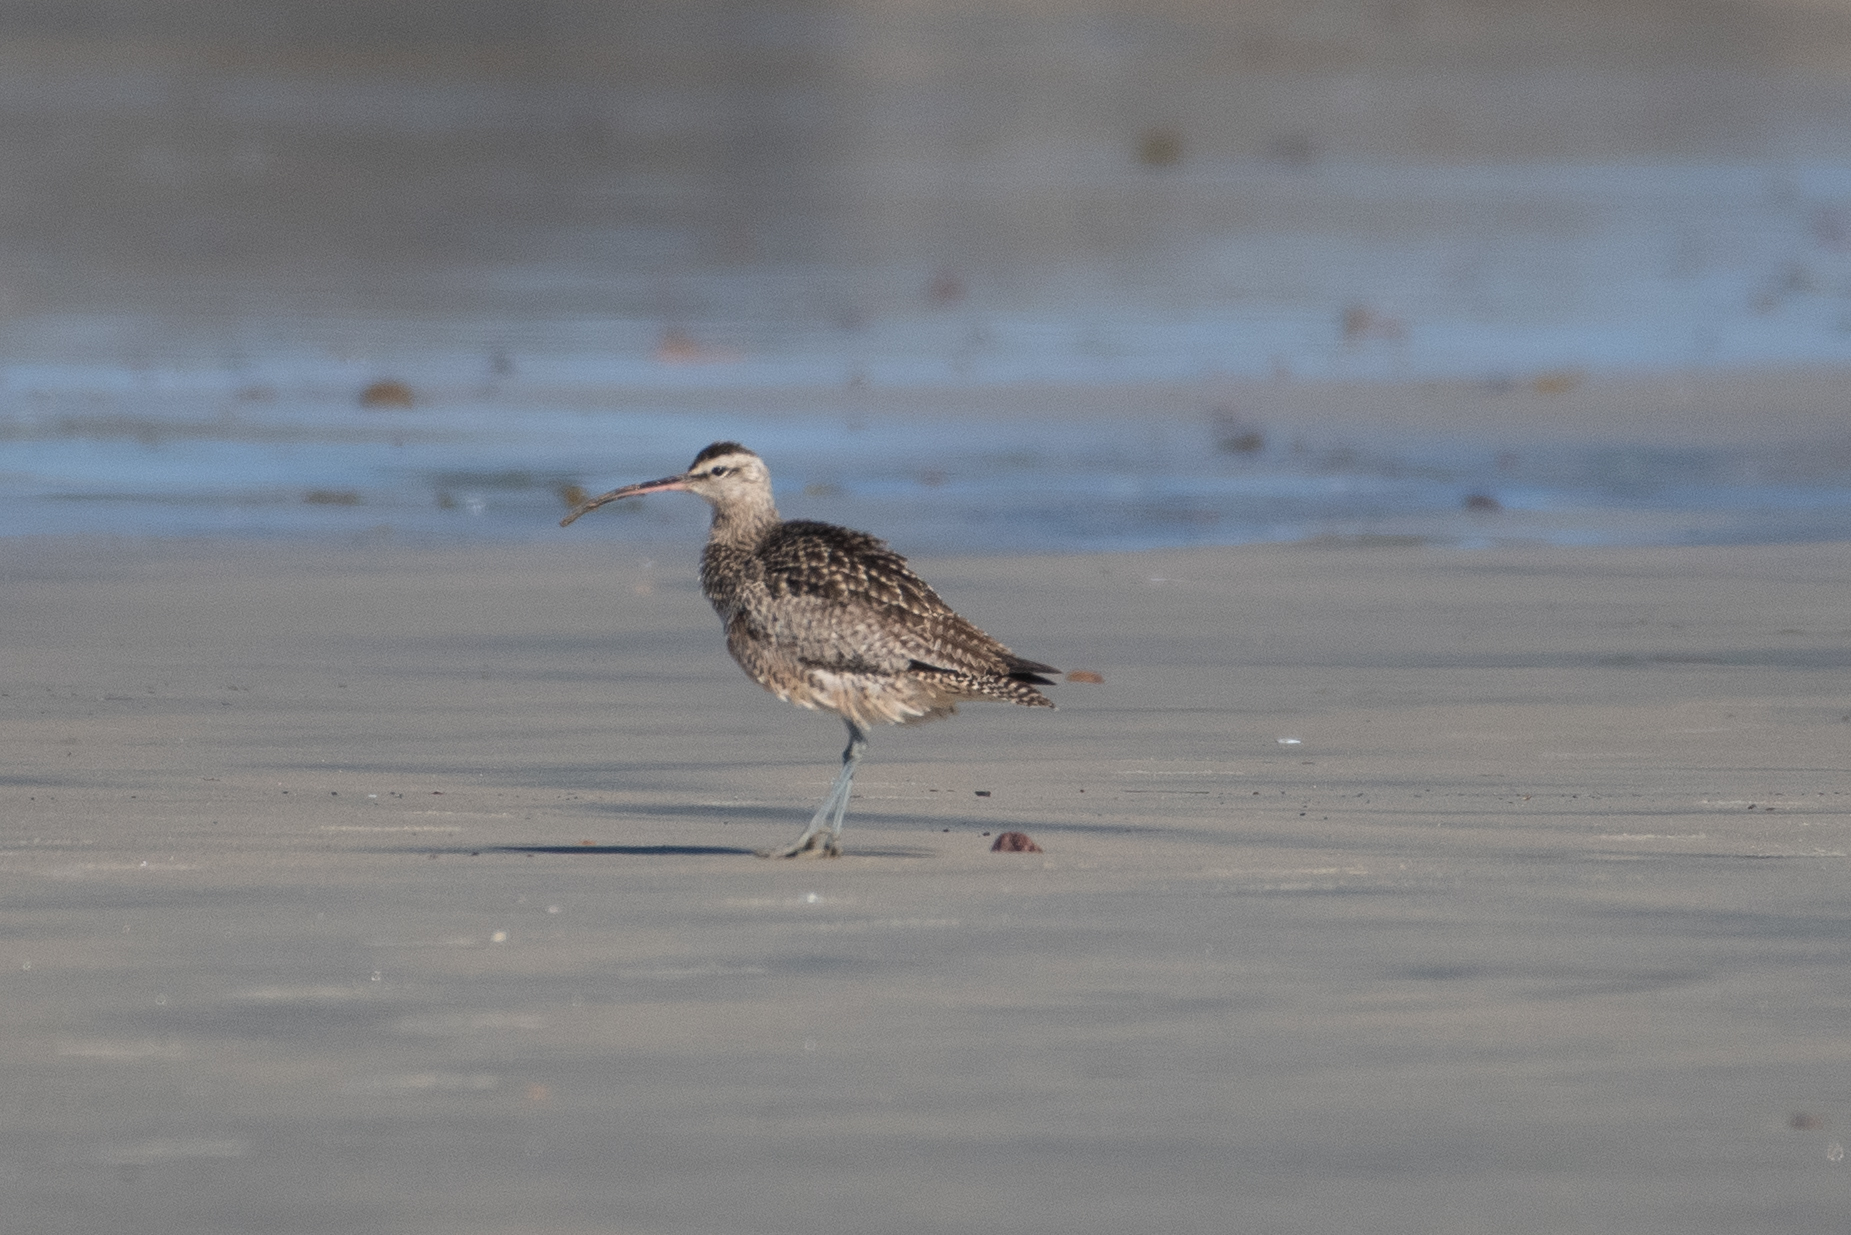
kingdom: Animalia
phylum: Chordata
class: Aves
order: Charadriiformes
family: Scolopacidae
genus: Numenius
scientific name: Numenius phaeopus
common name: Whimbrel
